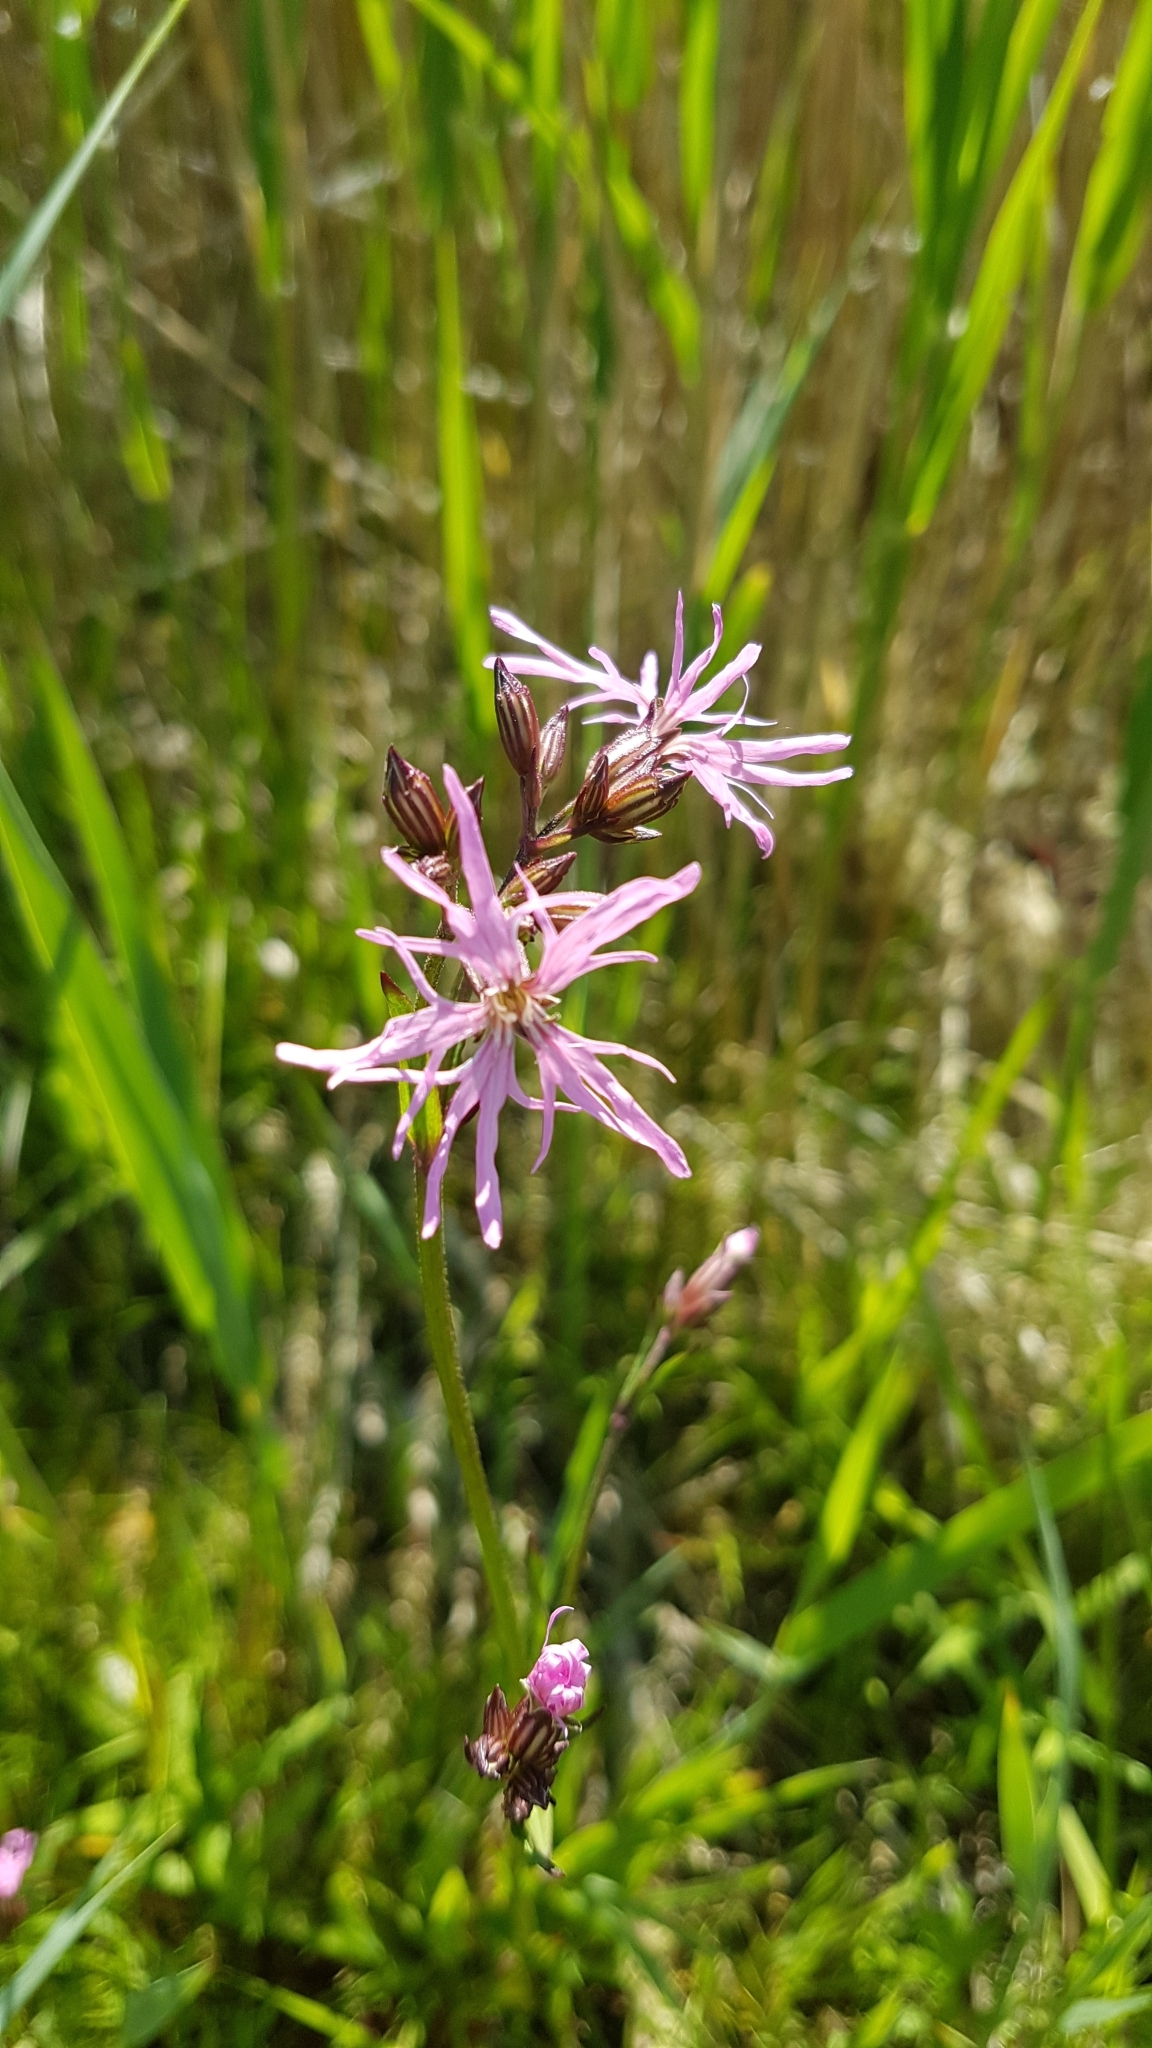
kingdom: Plantae
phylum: Tracheophyta
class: Magnoliopsida
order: Caryophyllales
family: Caryophyllaceae
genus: Silene
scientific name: Silene flos-cuculi
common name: Ragged-robin
